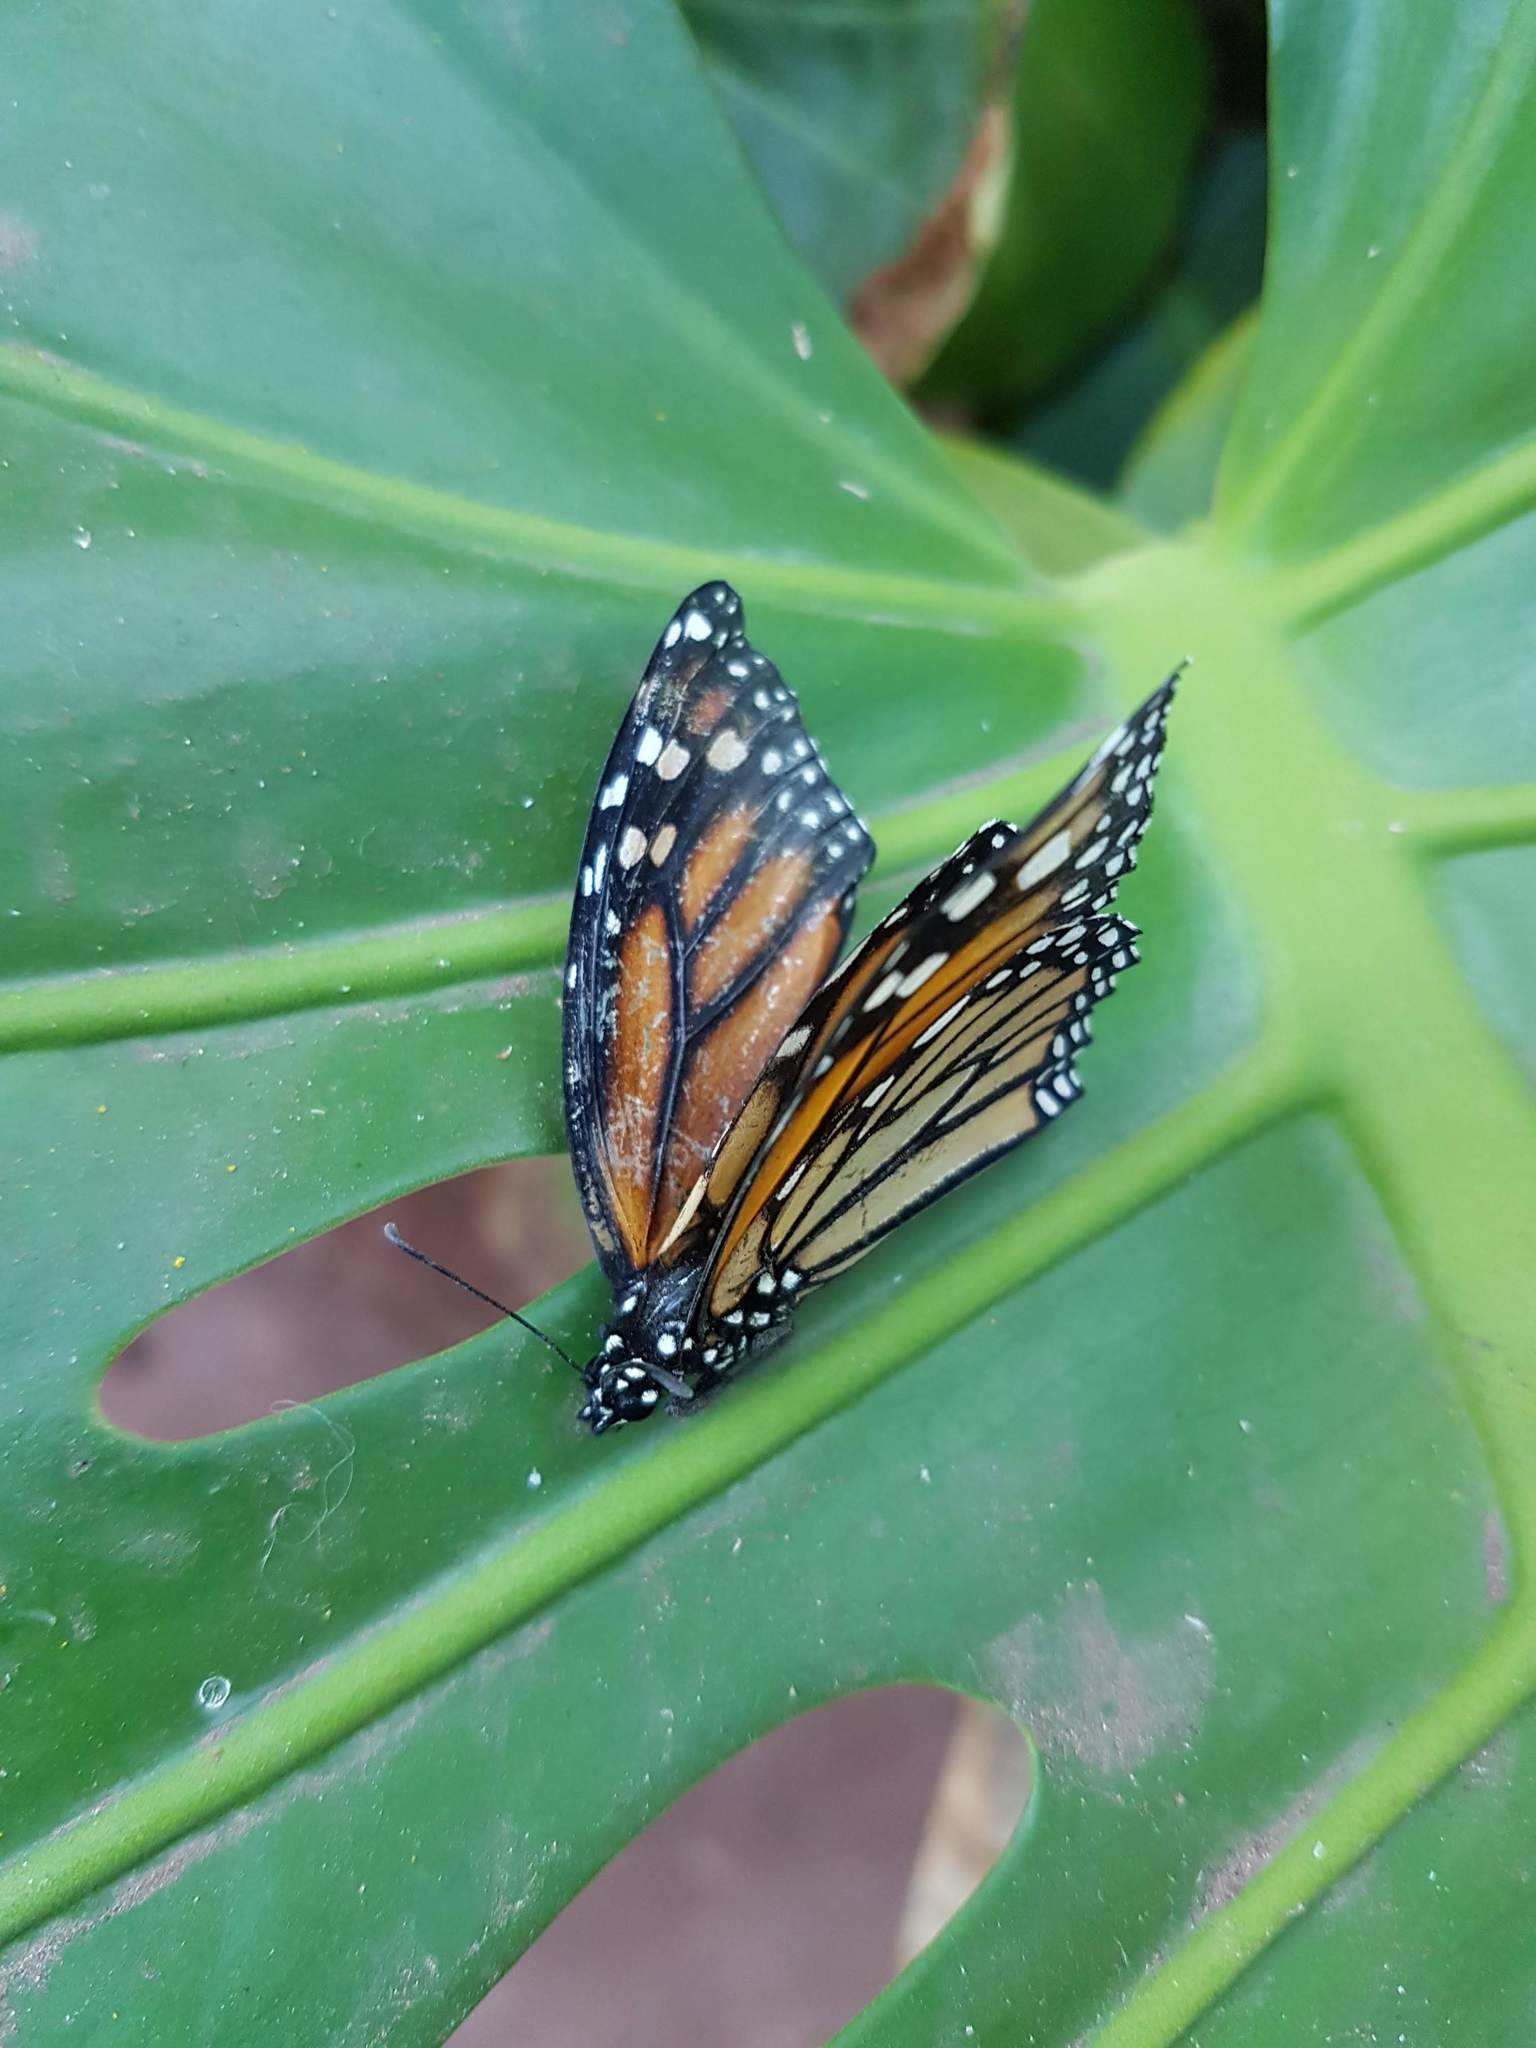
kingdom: Animalia
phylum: Arthropoda
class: Insecta
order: Lepidoptera
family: Nymphalidae
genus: Danaus
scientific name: Danaus plexippus
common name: Monarch
